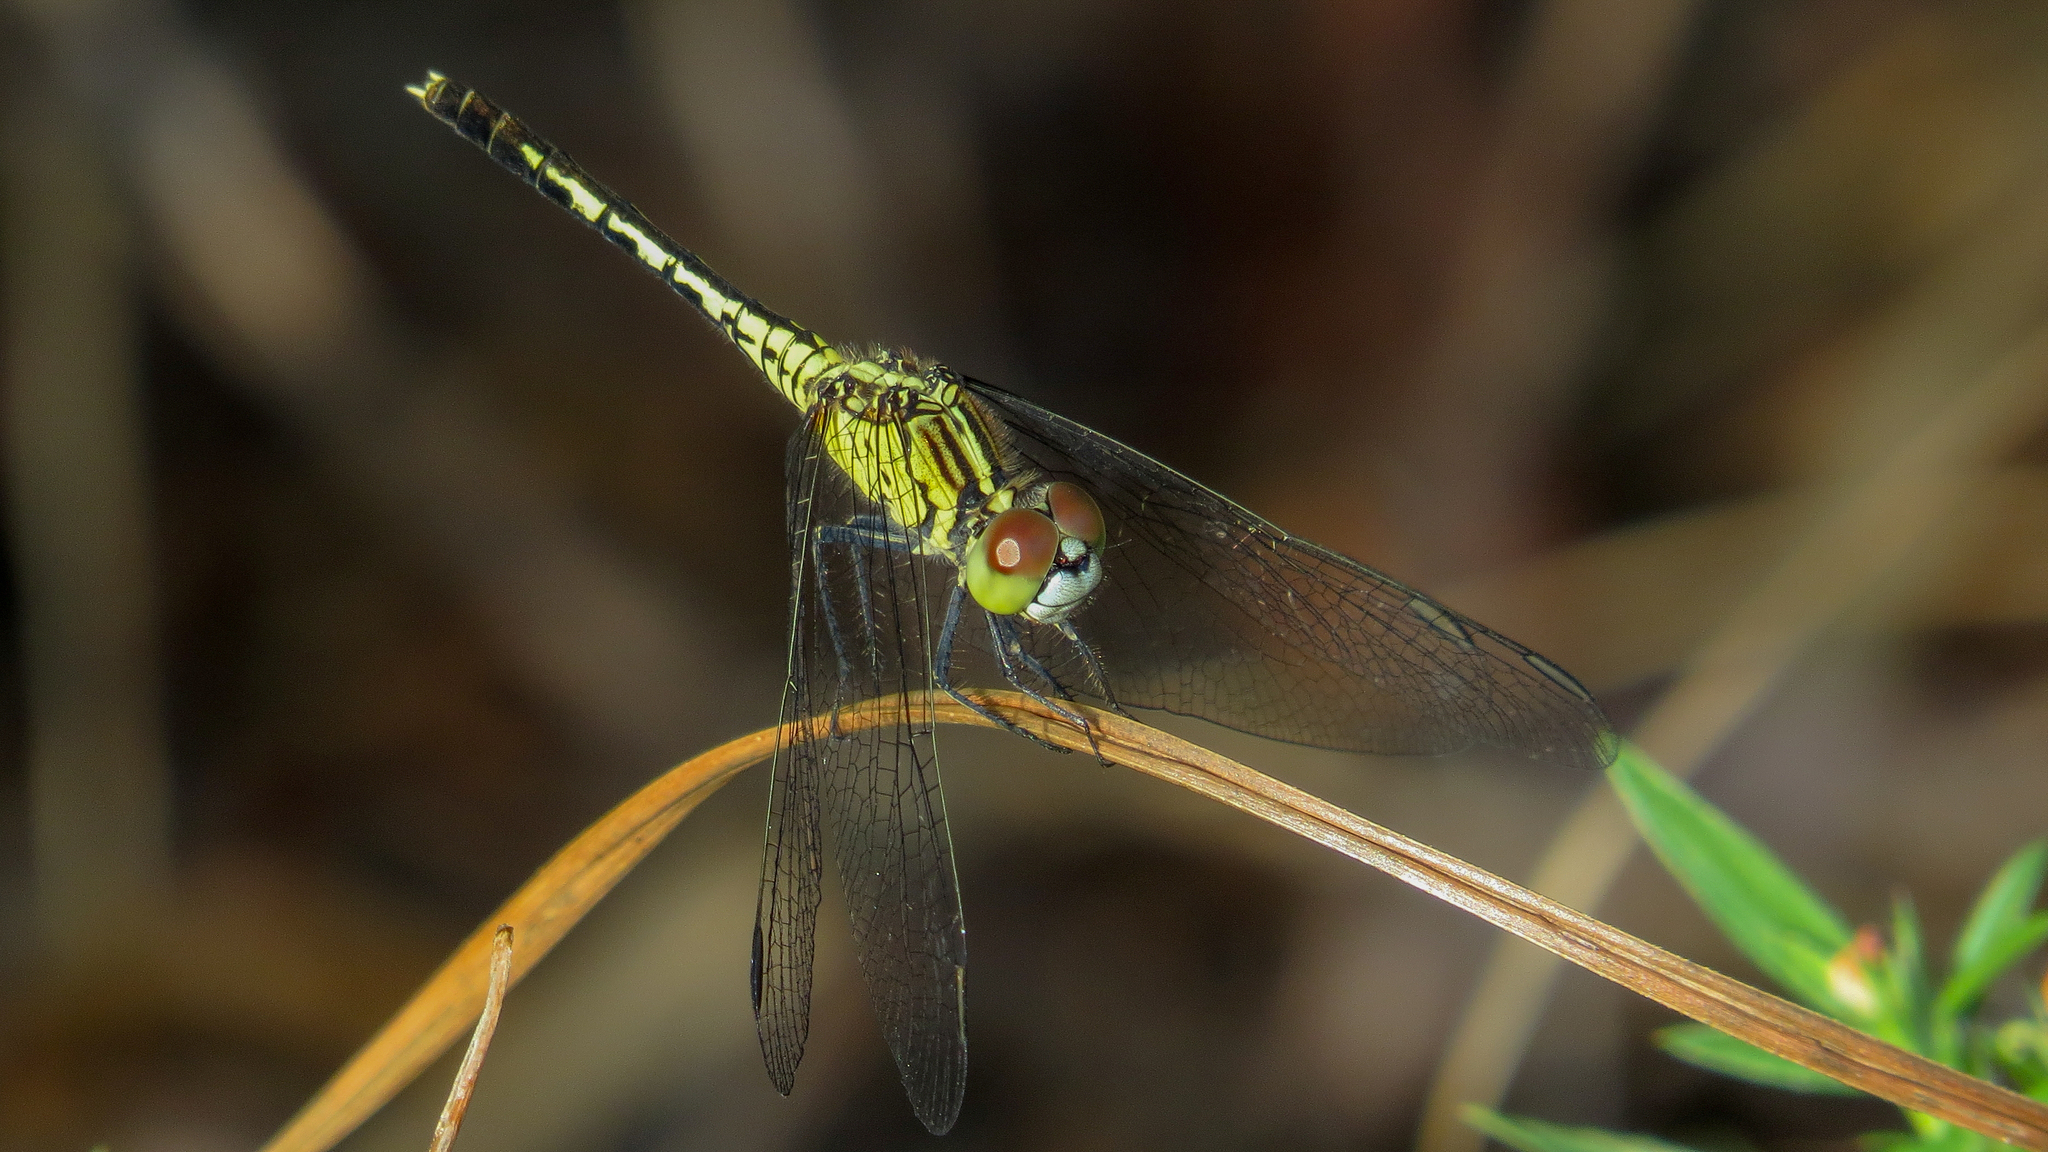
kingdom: Animalia
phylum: Arthropoda
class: Insecta
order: Odonata
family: Libellulidae
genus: Diplacodes
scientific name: Diplacodes trivialis
